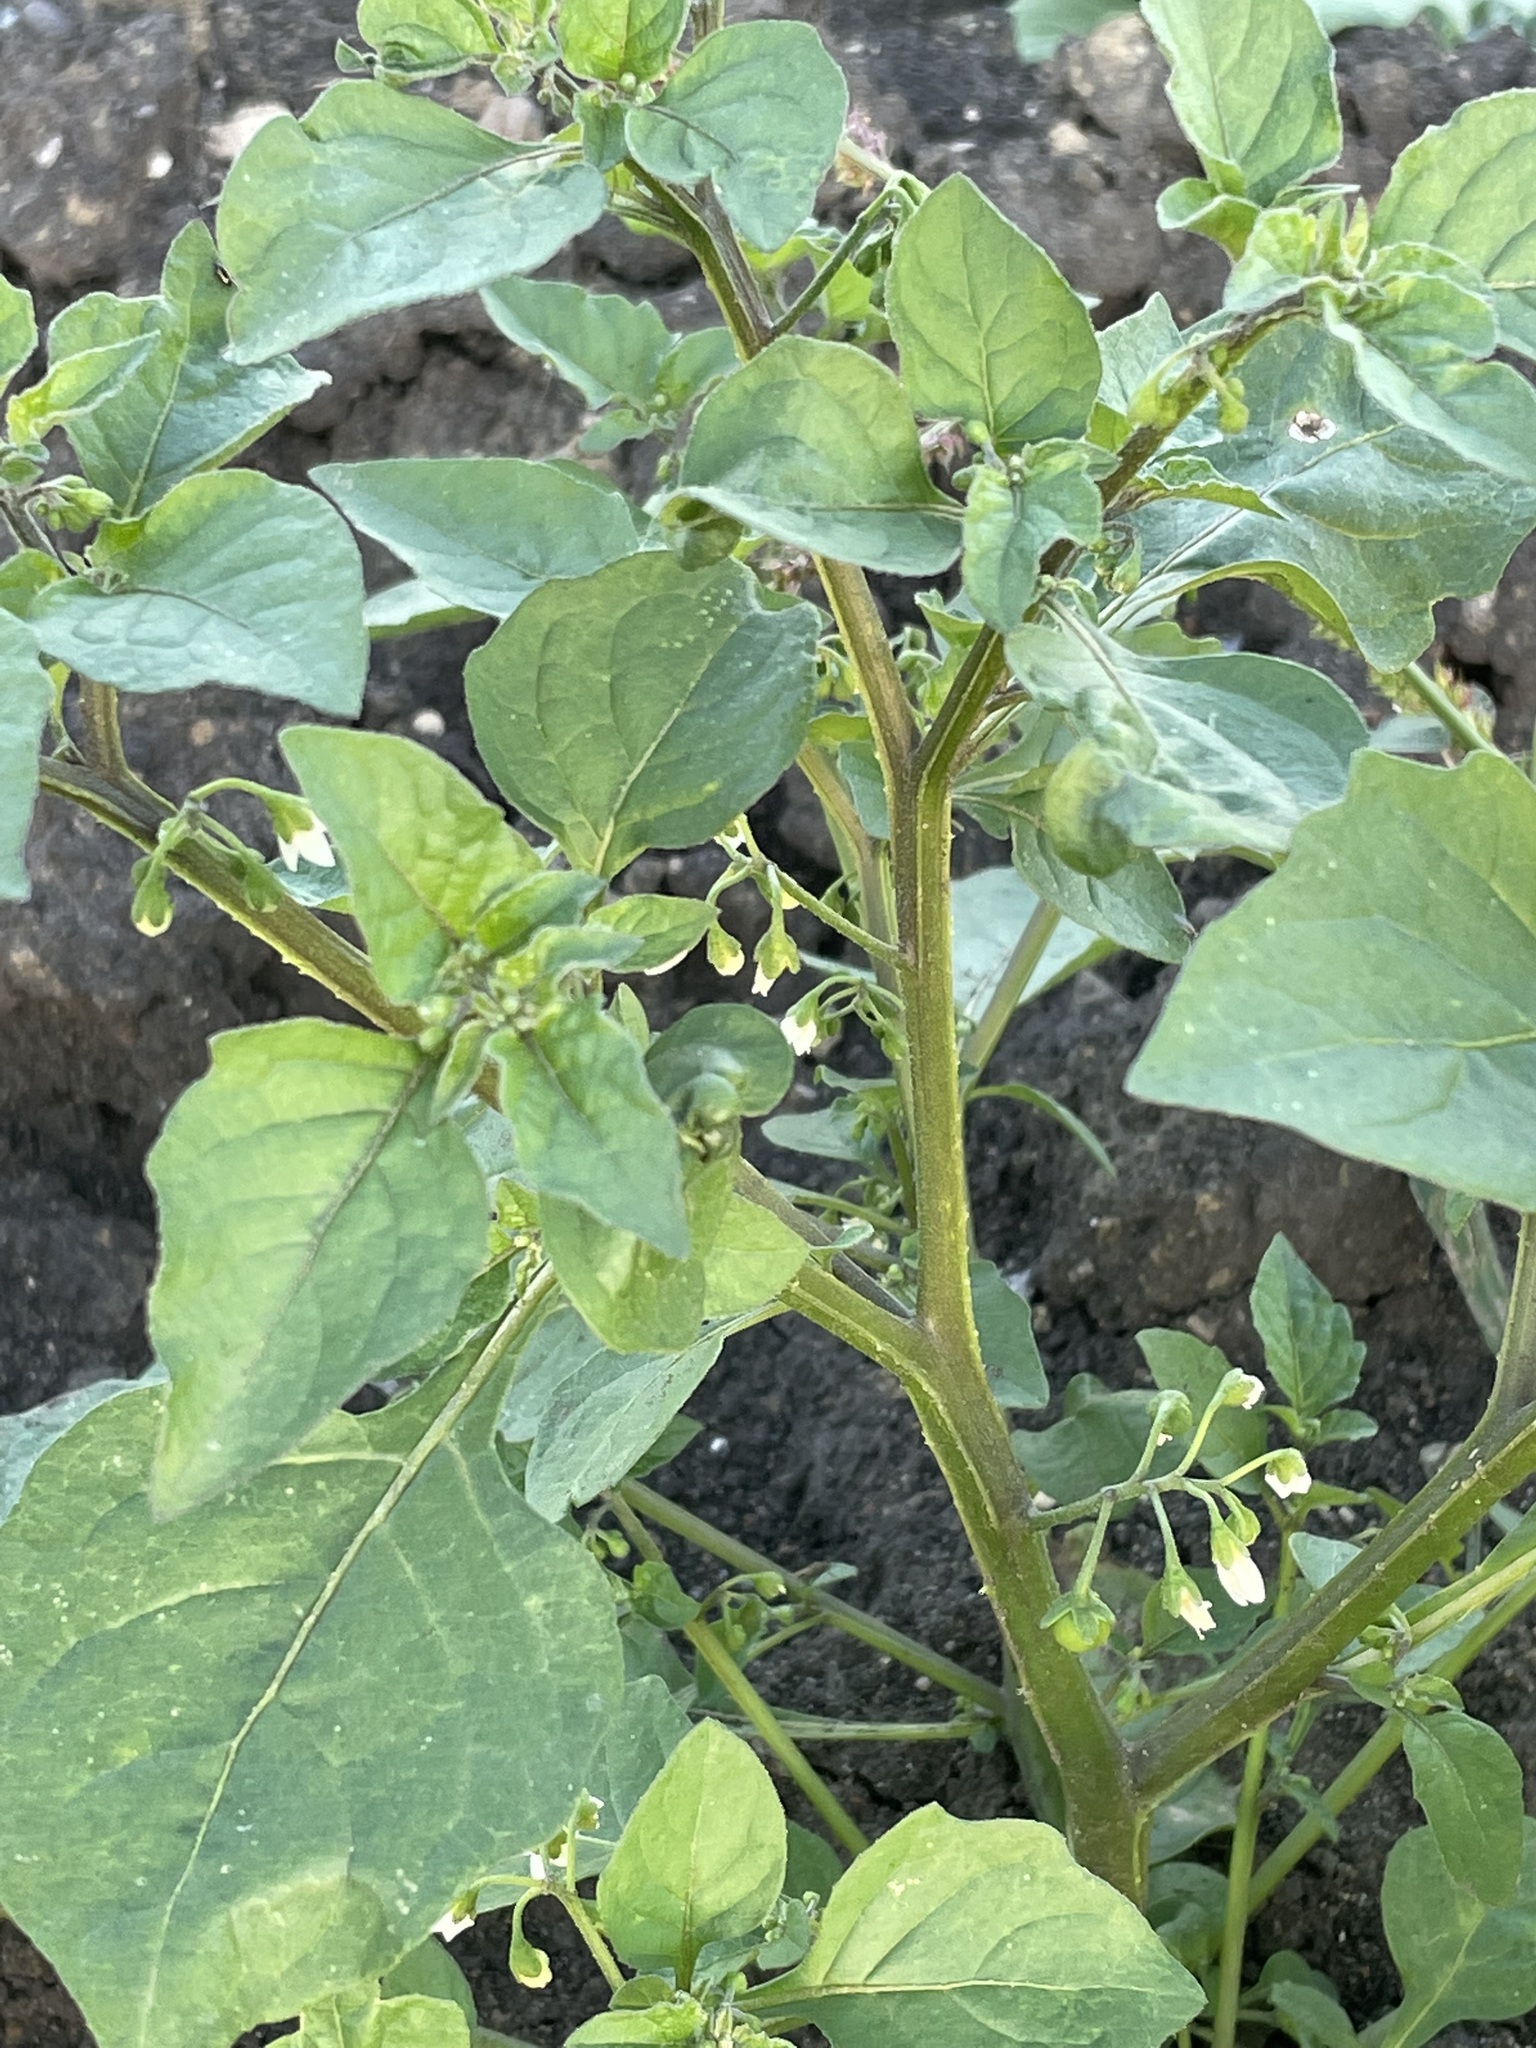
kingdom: Plantae
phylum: Tracheophyta
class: Magnoliopsida
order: Solanales
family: Solanaceae
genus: Solanum
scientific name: Solanum nigrum
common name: Black nightshade
